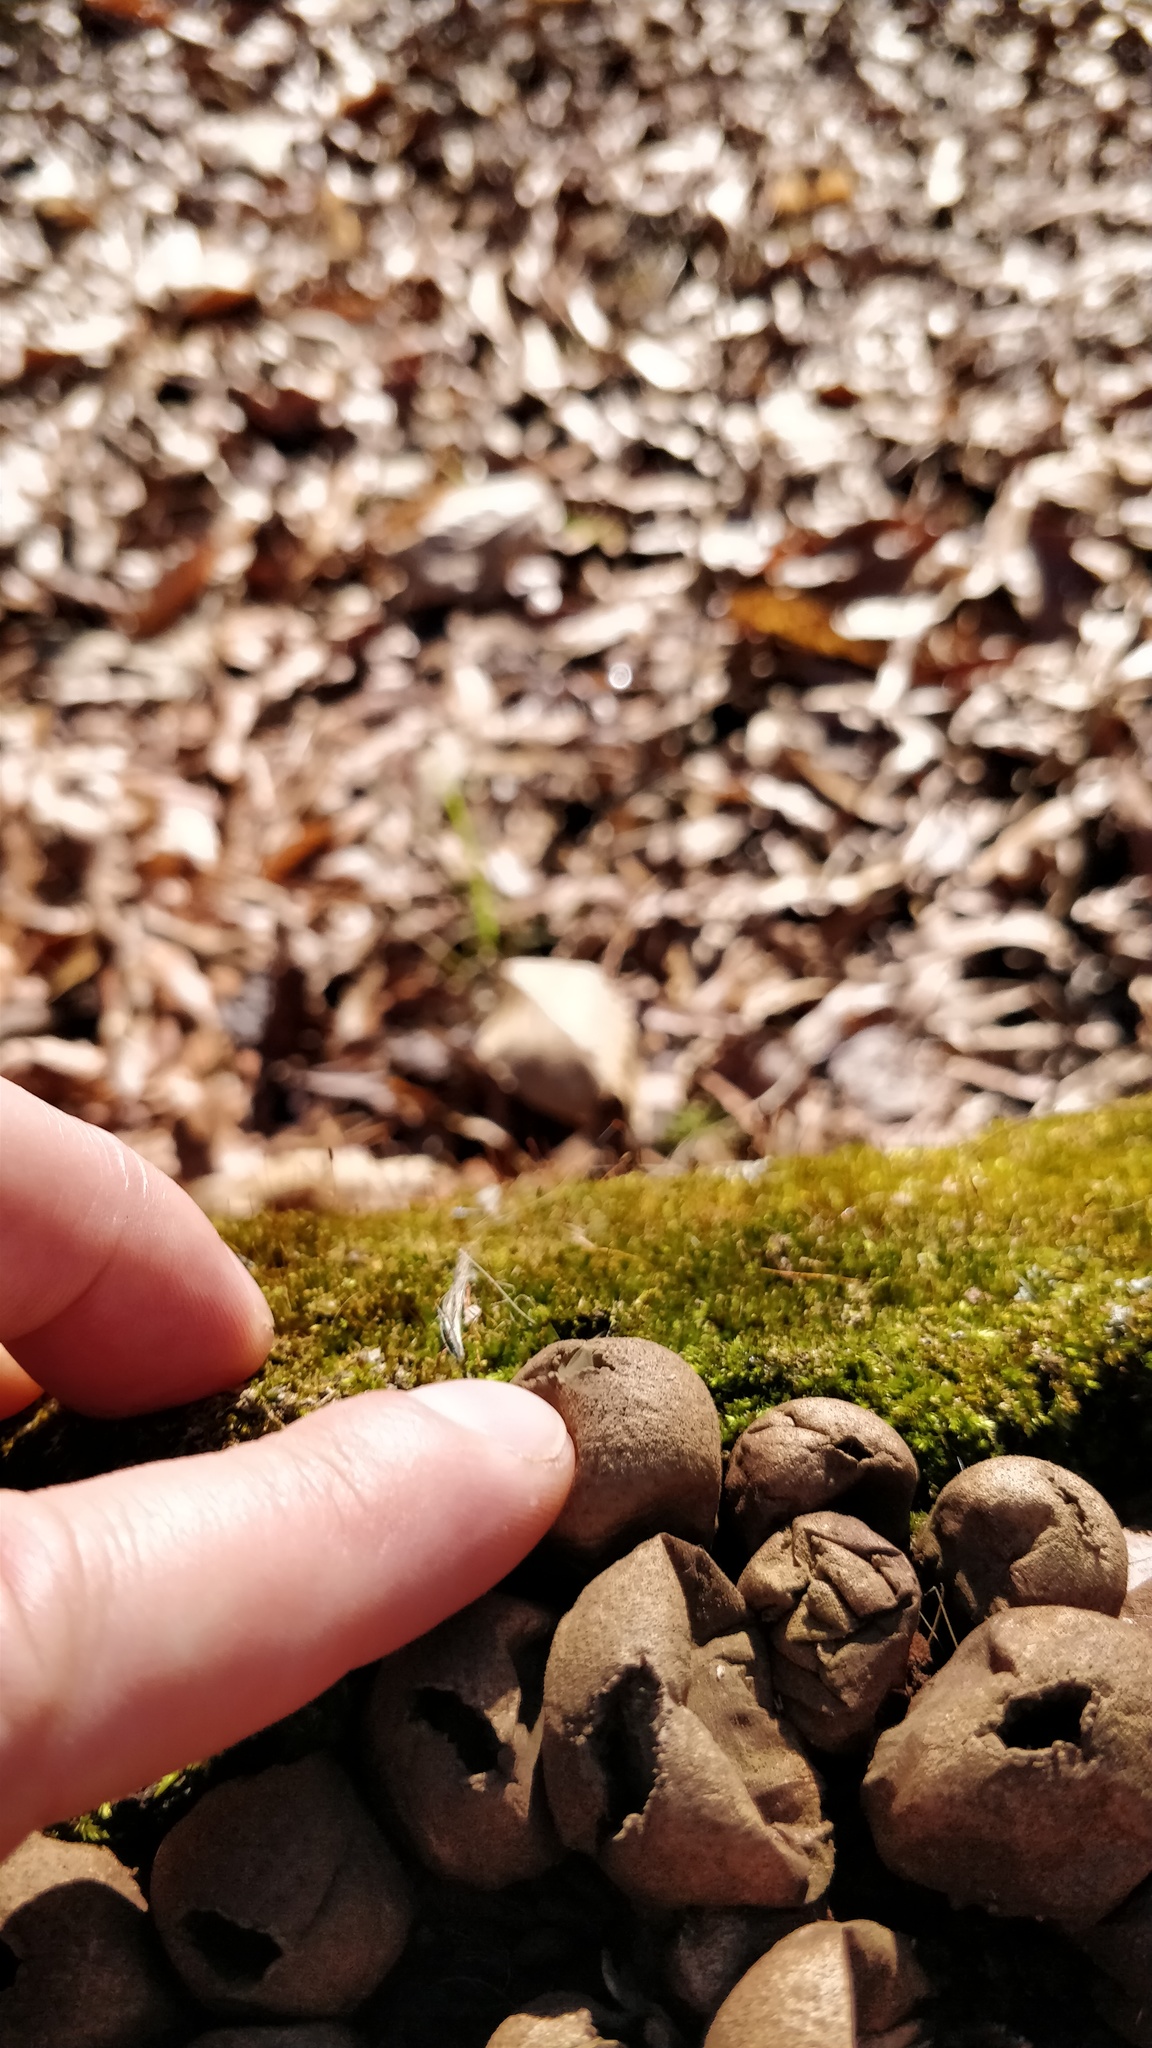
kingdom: Fungi
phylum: Basidiomycota
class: Agaricomycetes
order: Agaricales
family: Lycoperdaceae
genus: Apioperdon
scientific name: Apioperdon pyriforme
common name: Pear-shaped puffball
